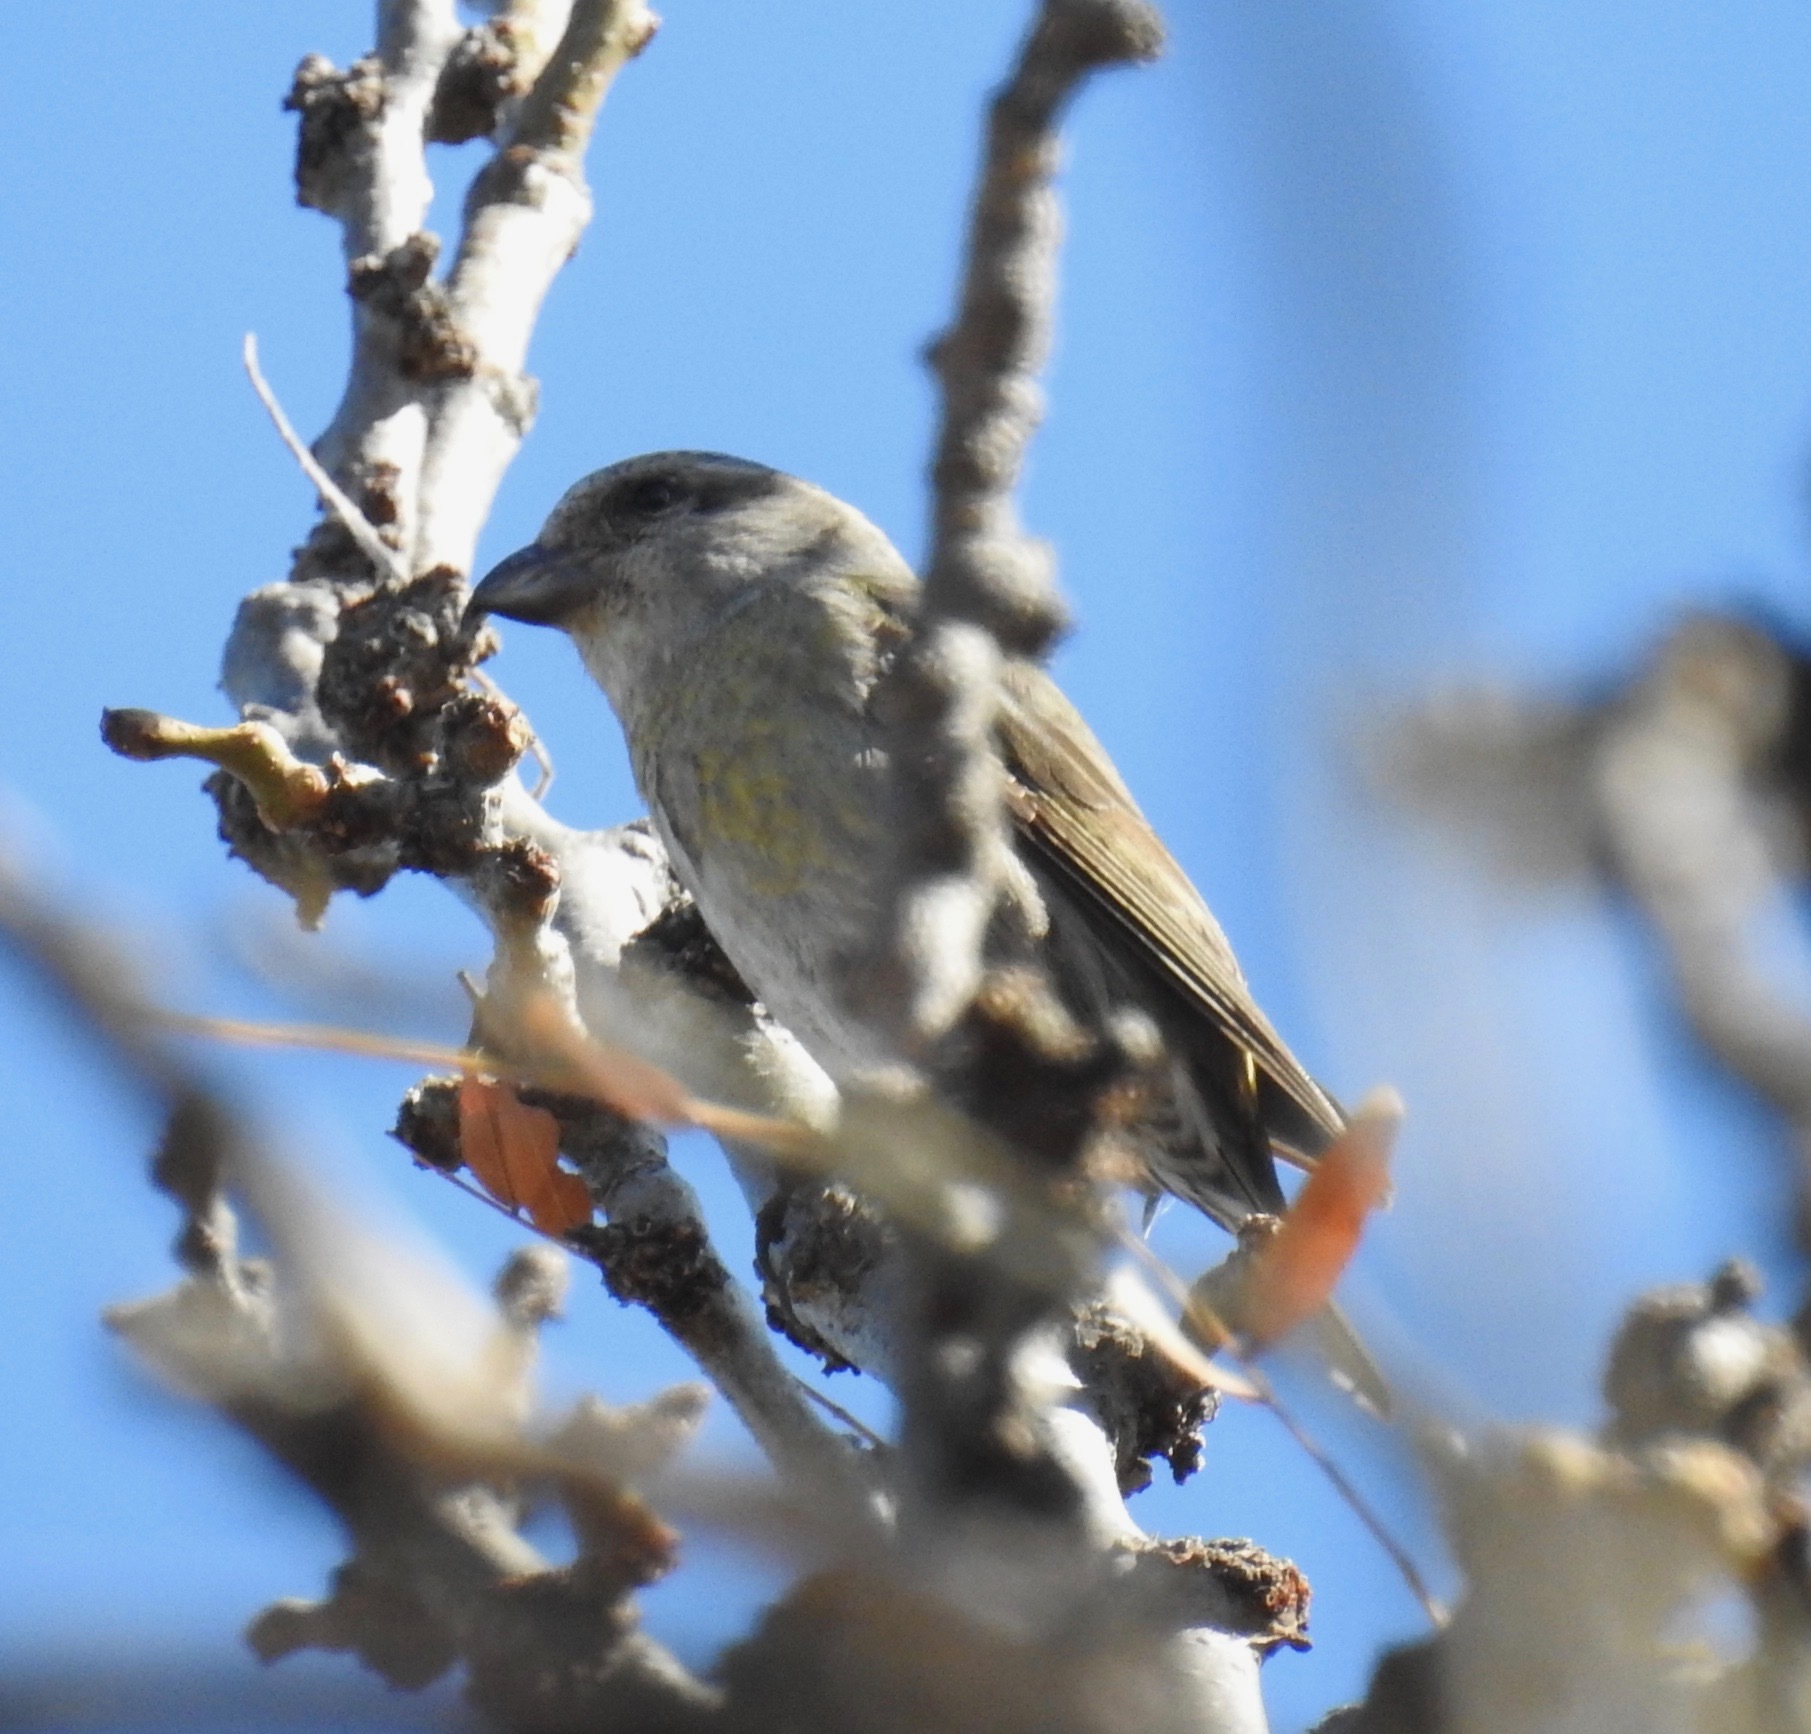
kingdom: Animalia
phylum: Chordata
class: Aves
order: Passeriformes
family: Fringillidae
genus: Loxia
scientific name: Loxia curvirostra
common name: Red crossbill
